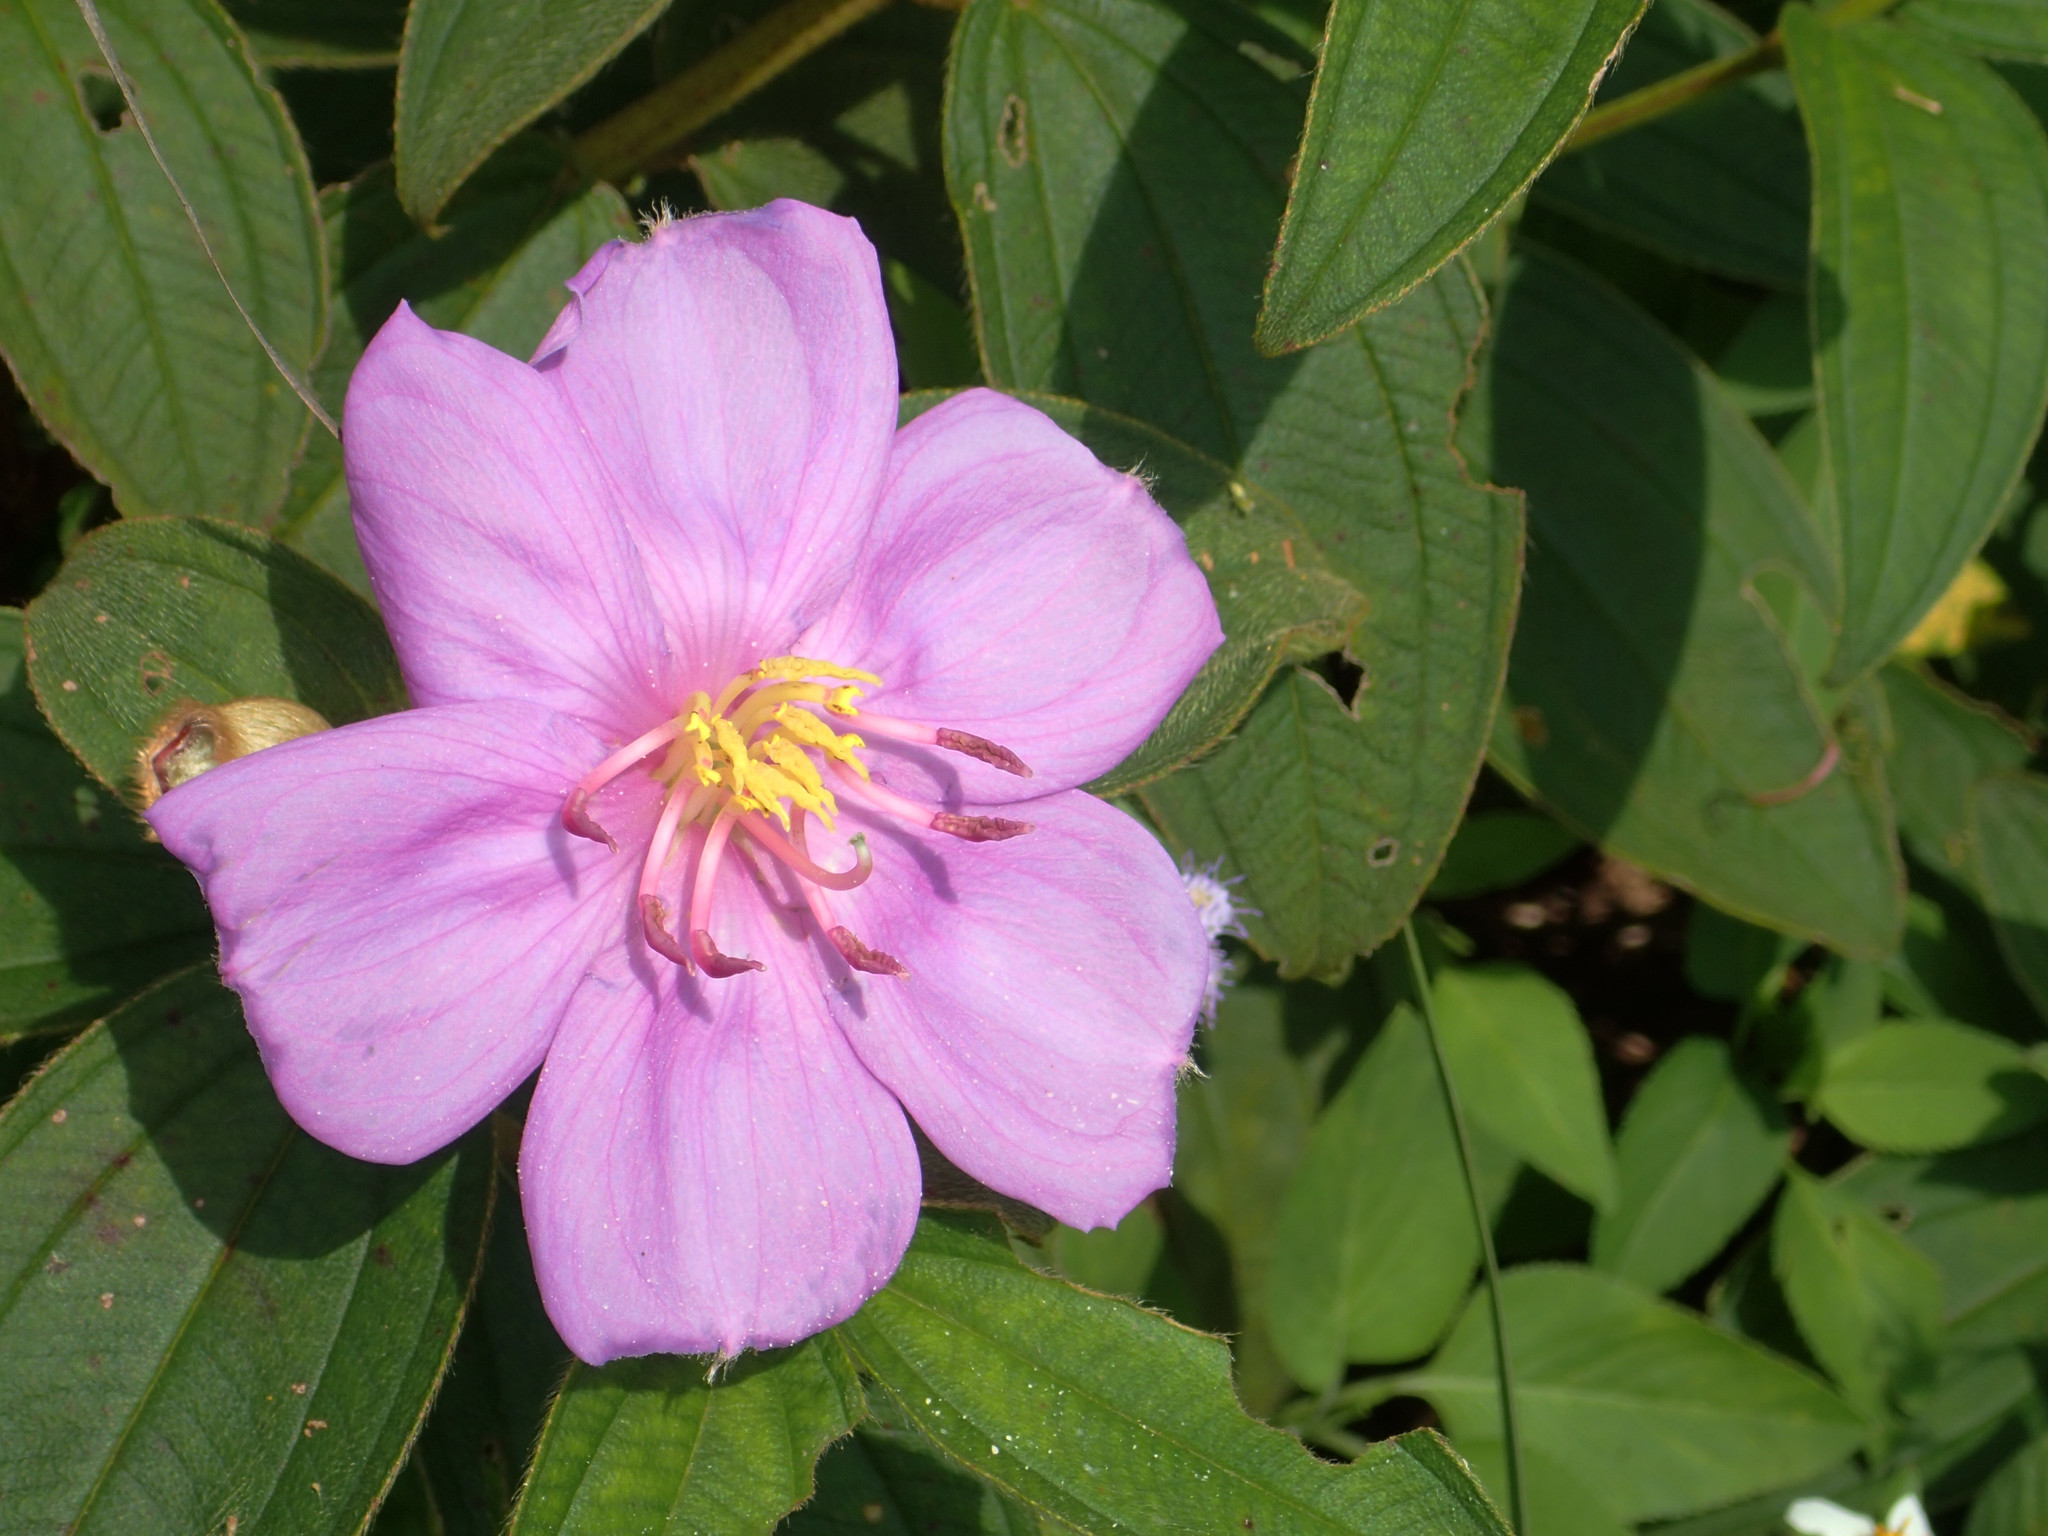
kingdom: Plantae
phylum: Tracheophyta
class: Magnoliopsida
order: Myrtales
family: Melastomataceae
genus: Melastoma
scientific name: Melastoma malabathricum
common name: Indian-rhododendron
